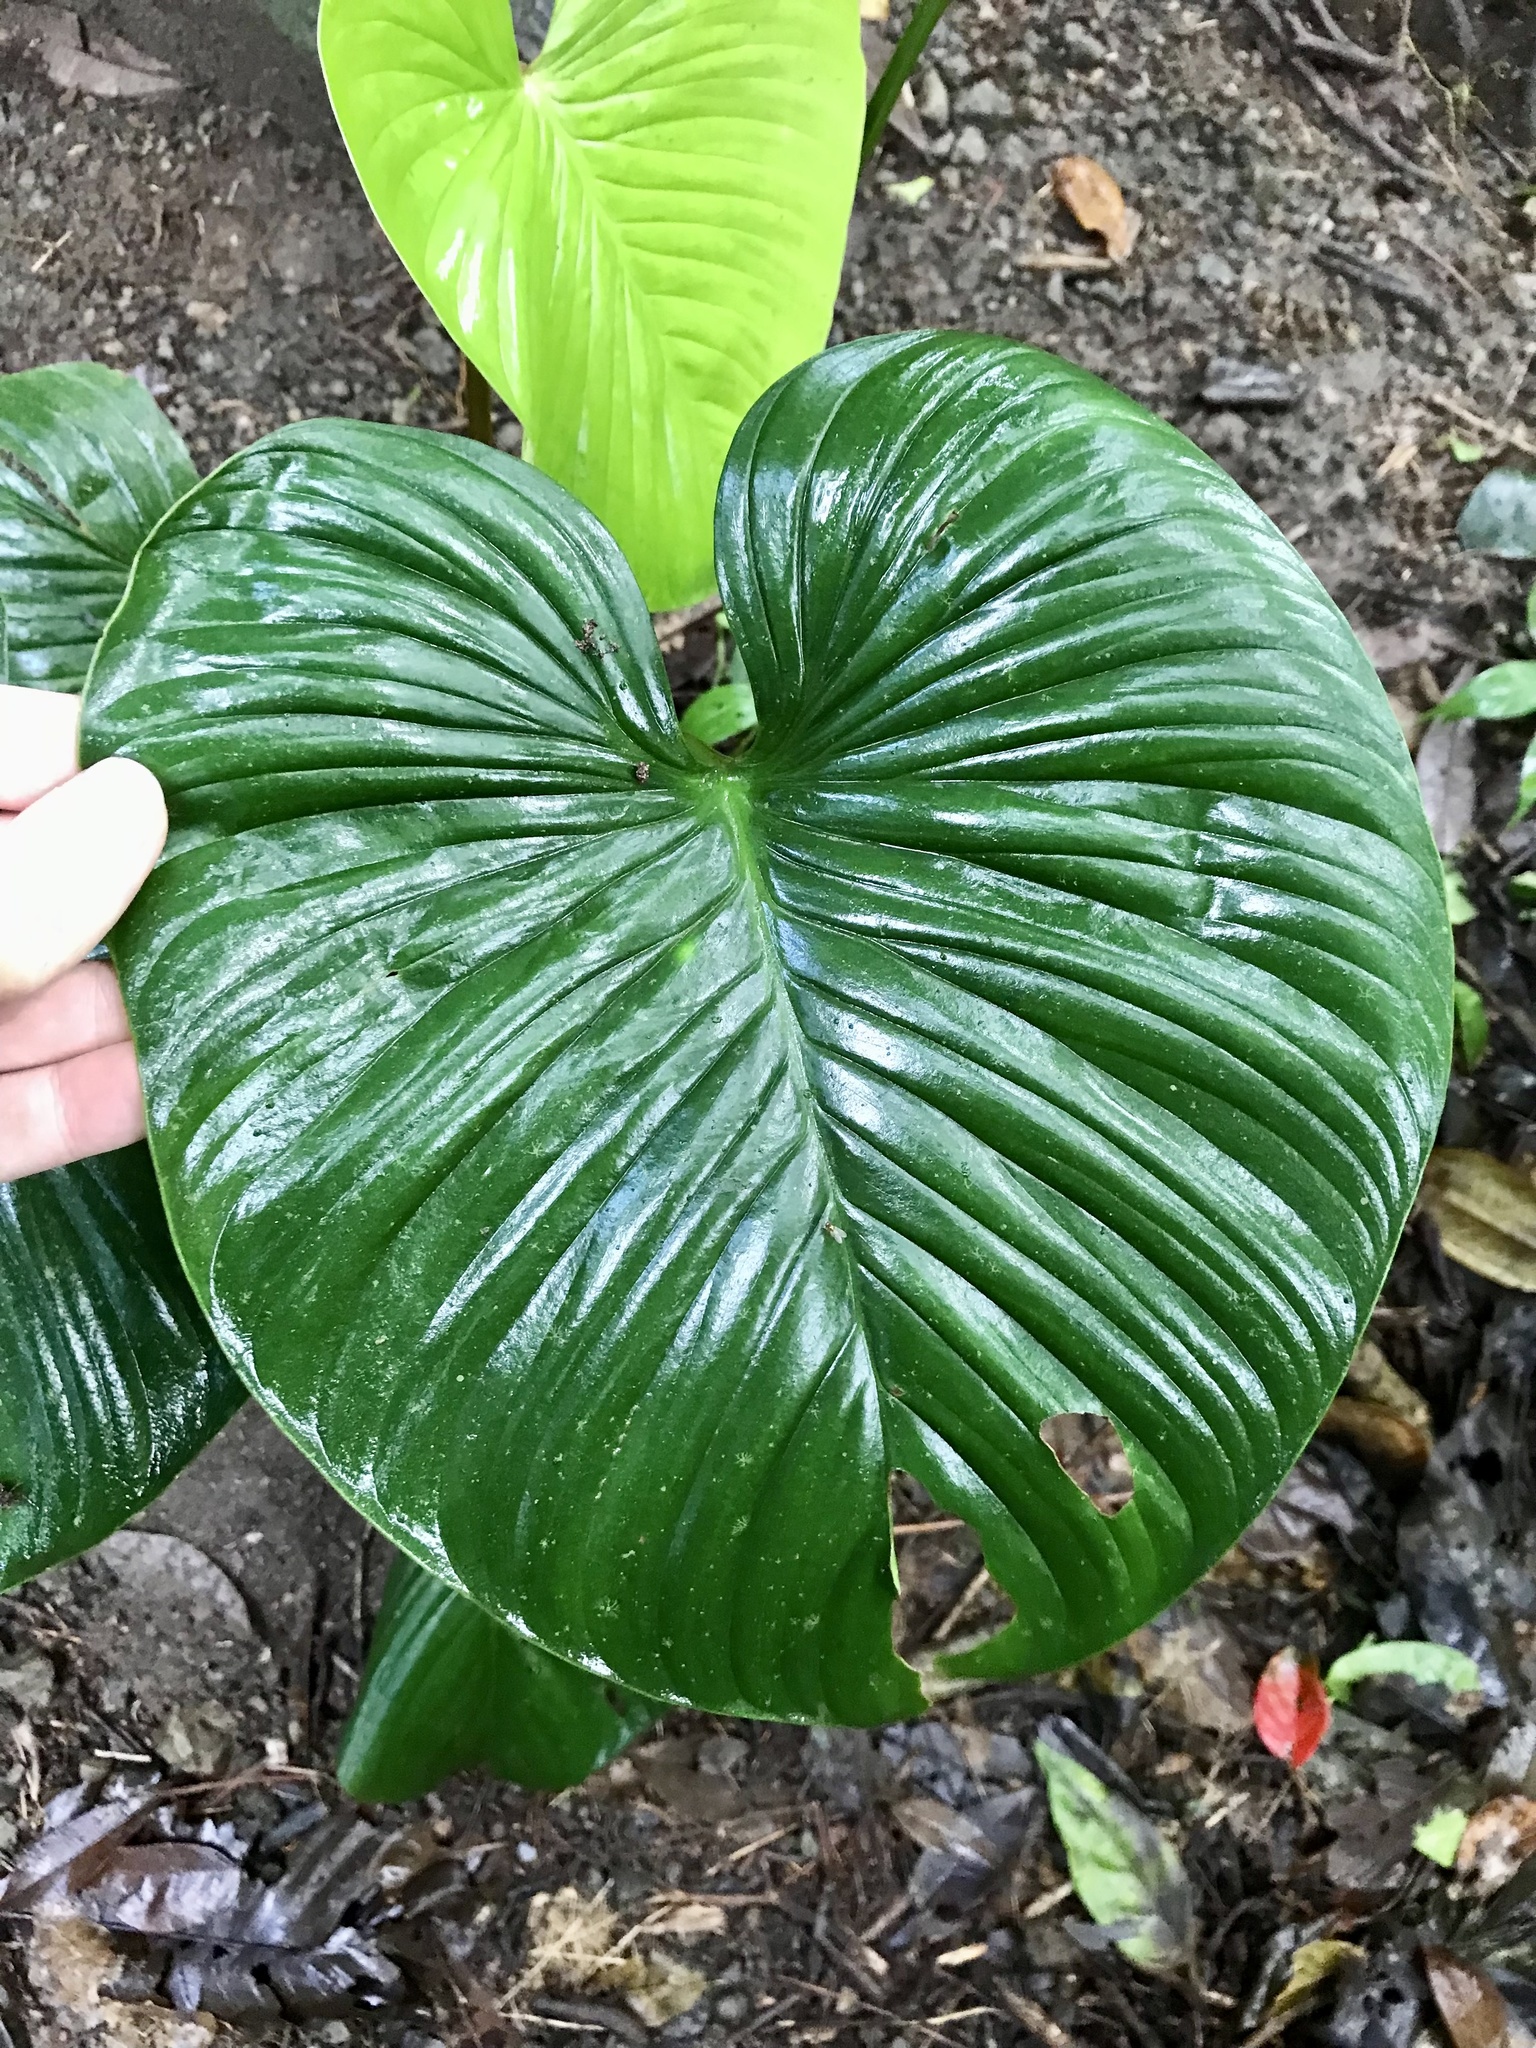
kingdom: Plantae
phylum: Tracheophyta
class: Liliopsida
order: Alismatales
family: Araceae
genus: Philodendron
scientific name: Philodendron grandipes
